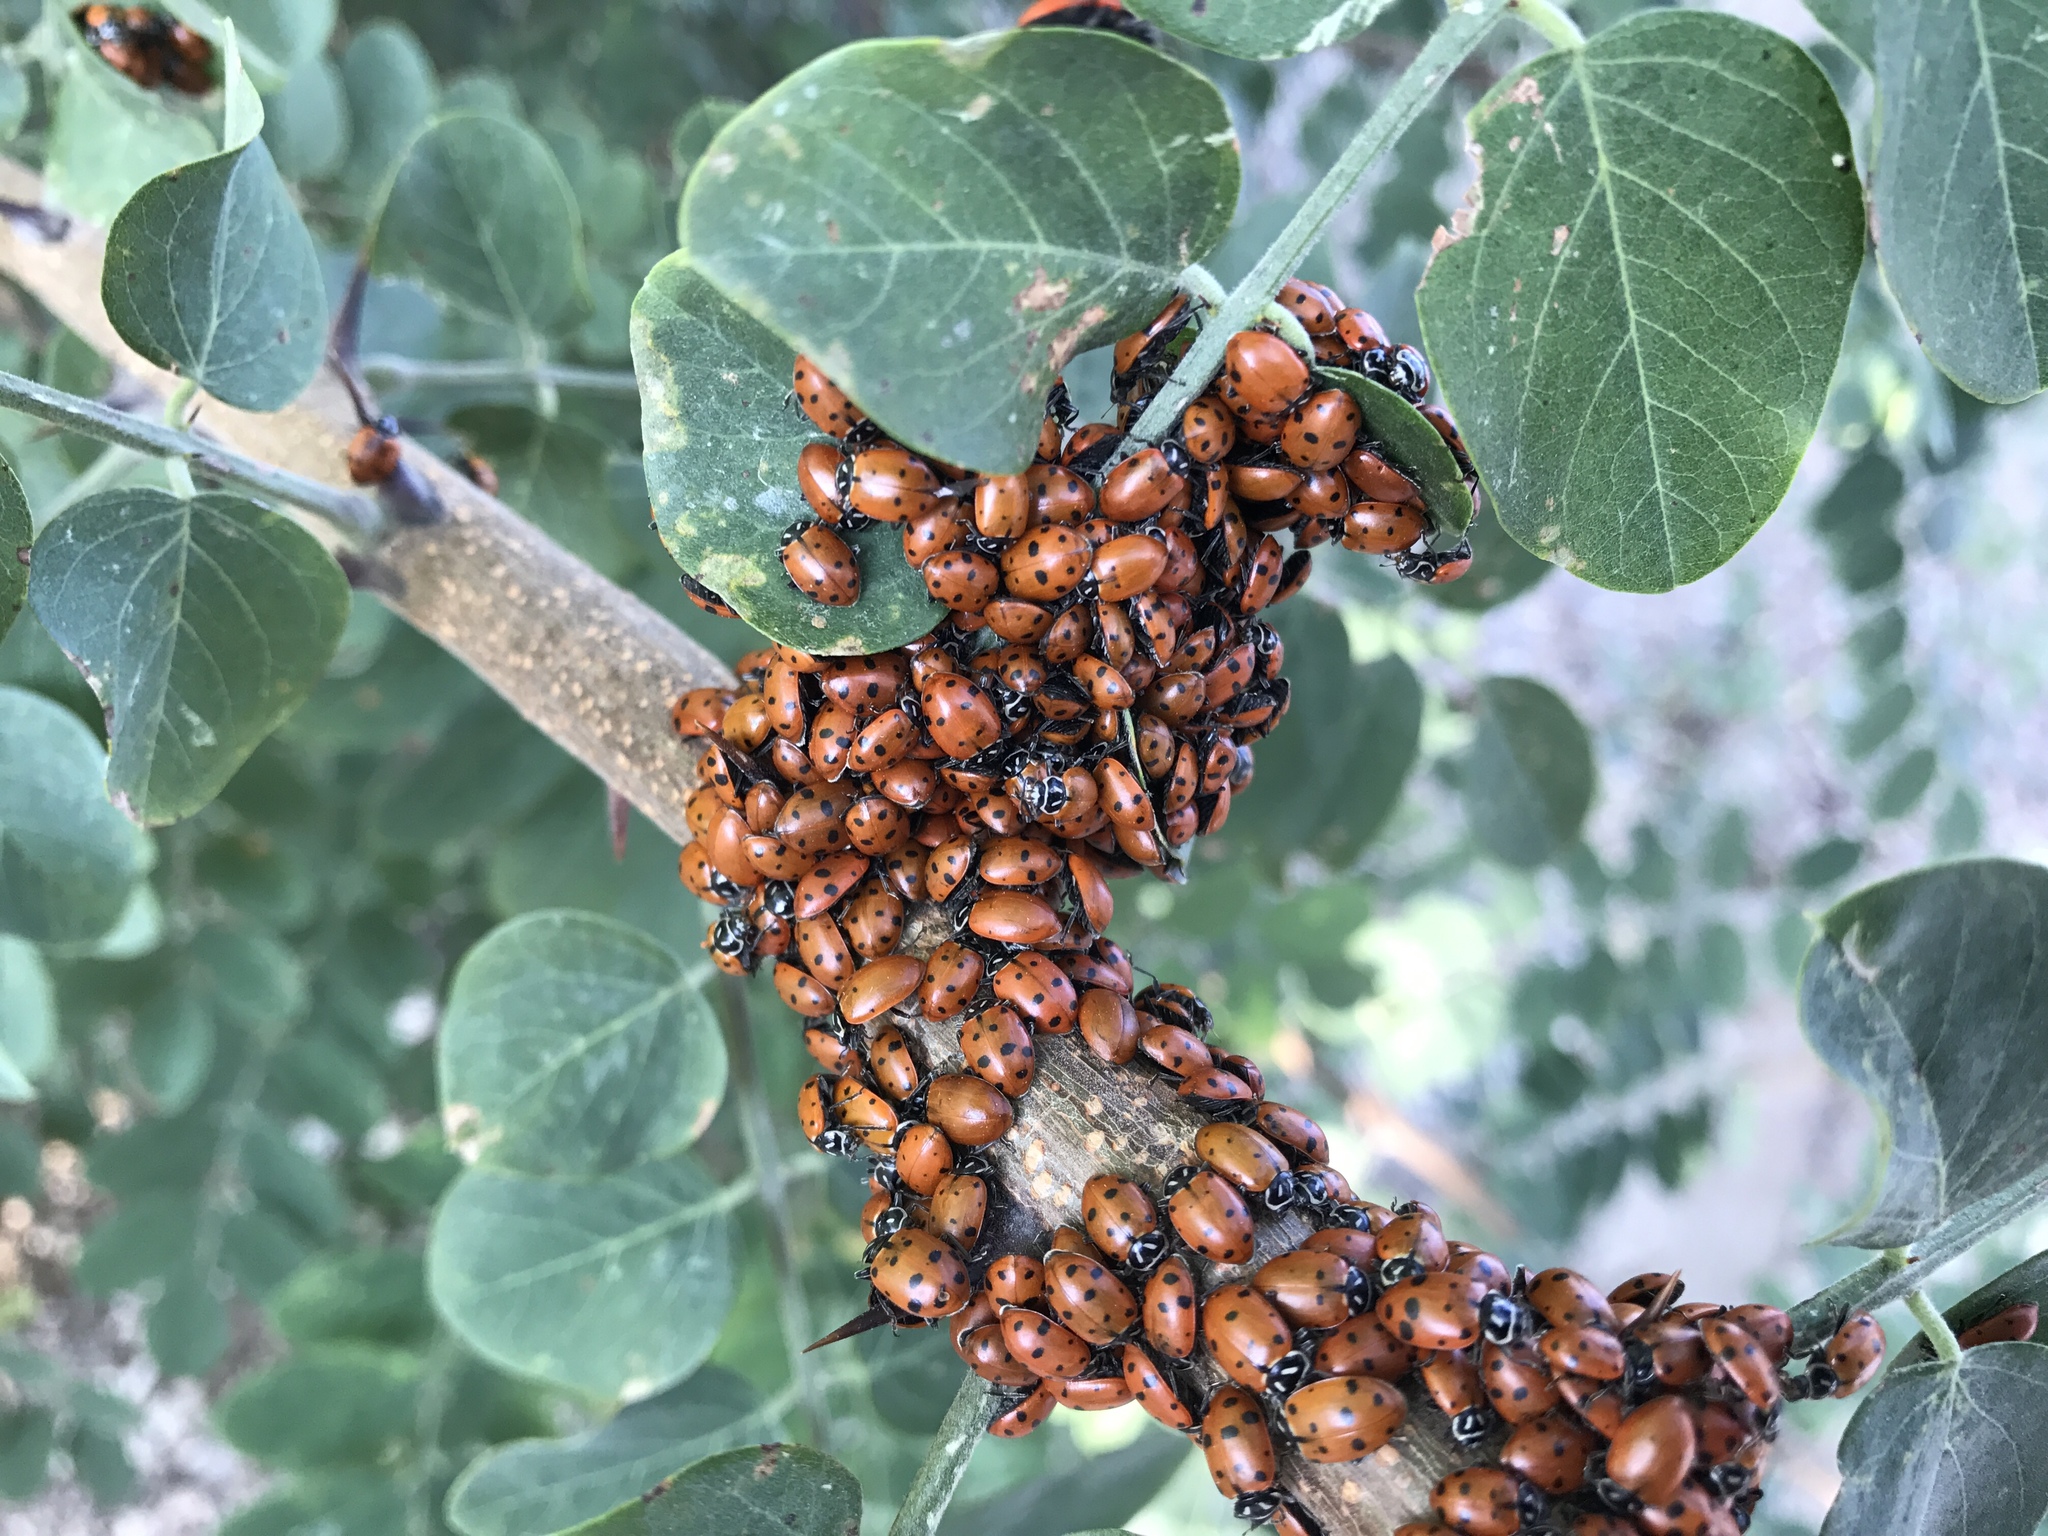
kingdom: Animalia
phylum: Arthropoda
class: Insecta
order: Coleoptera
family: Coccinellidae
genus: Hippodamia
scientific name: Hippodamia convergens
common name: Convergent lady beetle
